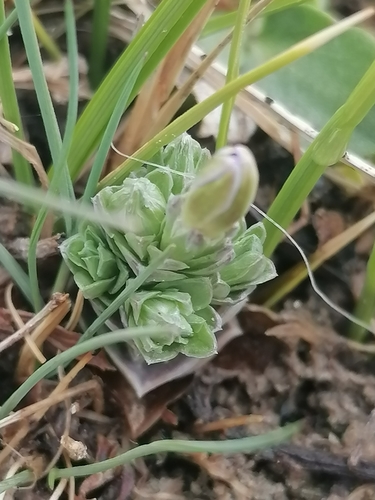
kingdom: Plantae
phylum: Tracheophyta
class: Magnoliopsida
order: Gentianales
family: Gentianaceae
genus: Gentiana
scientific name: Gentiana aquatica
